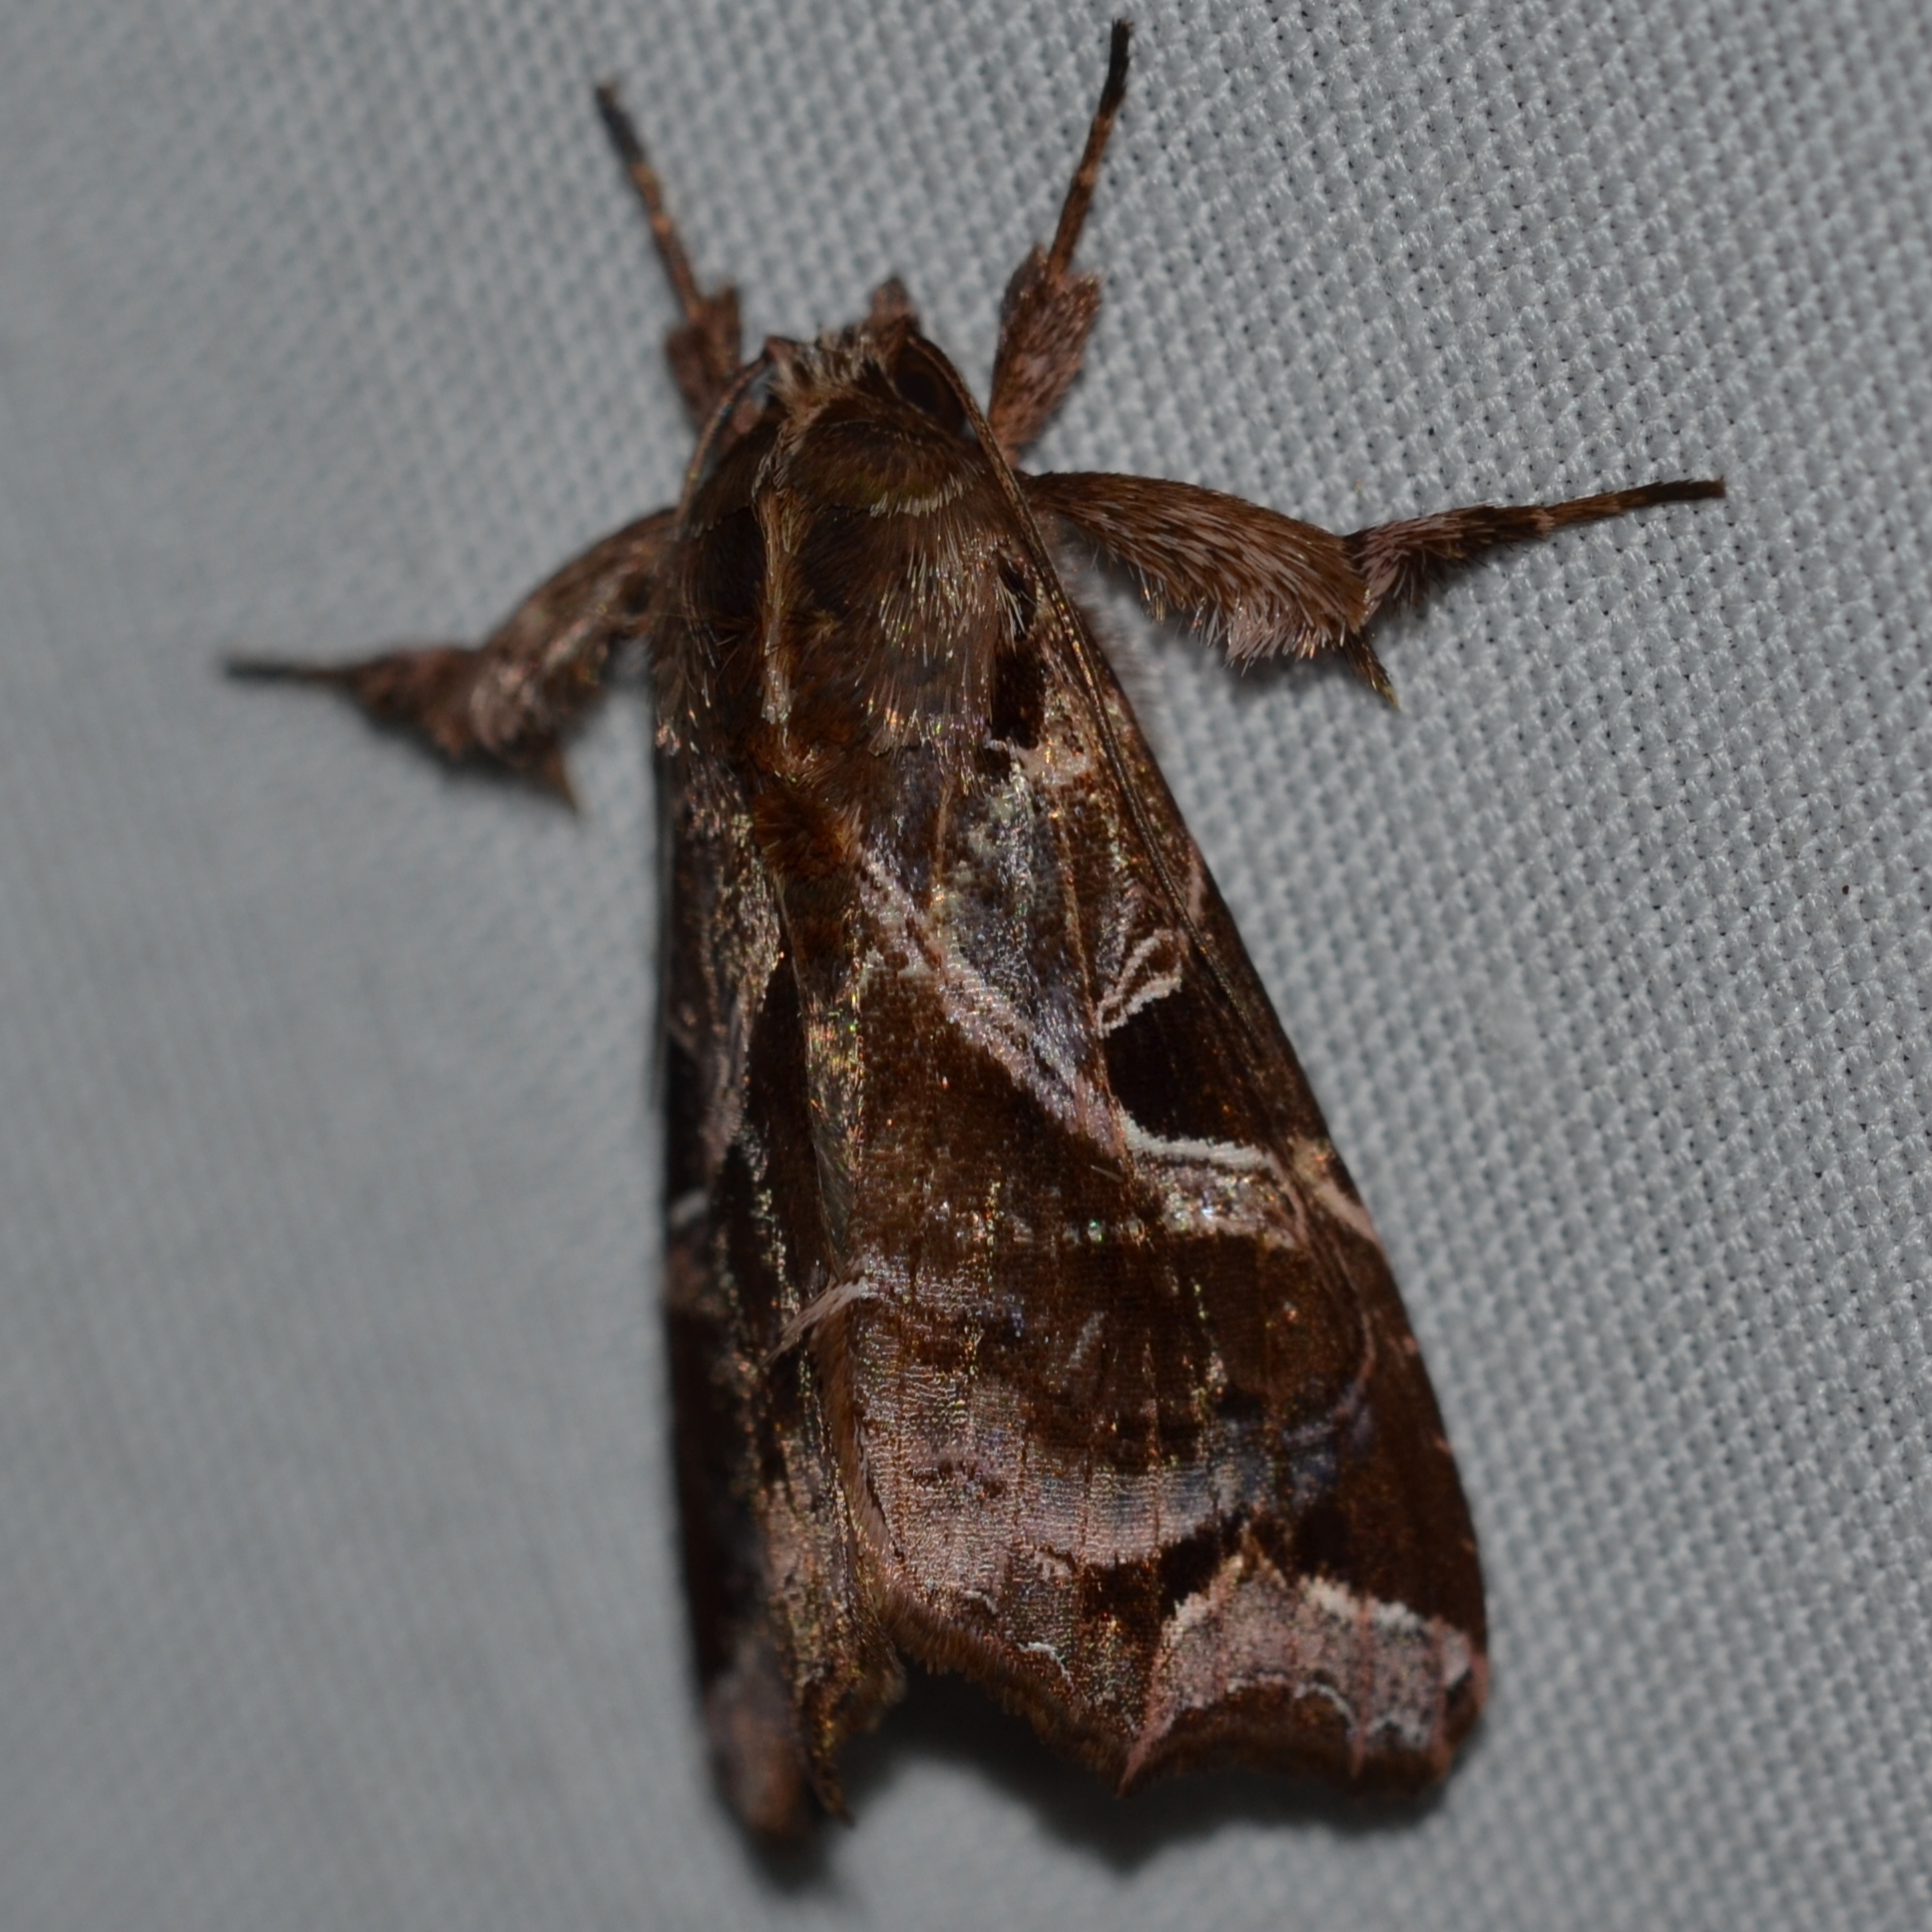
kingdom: Animalia
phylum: Arthropoda
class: Insecta
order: Lepidoptera
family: Noctuidae
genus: Callopistria
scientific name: Callopistria floridensis
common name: Florida fern moth
